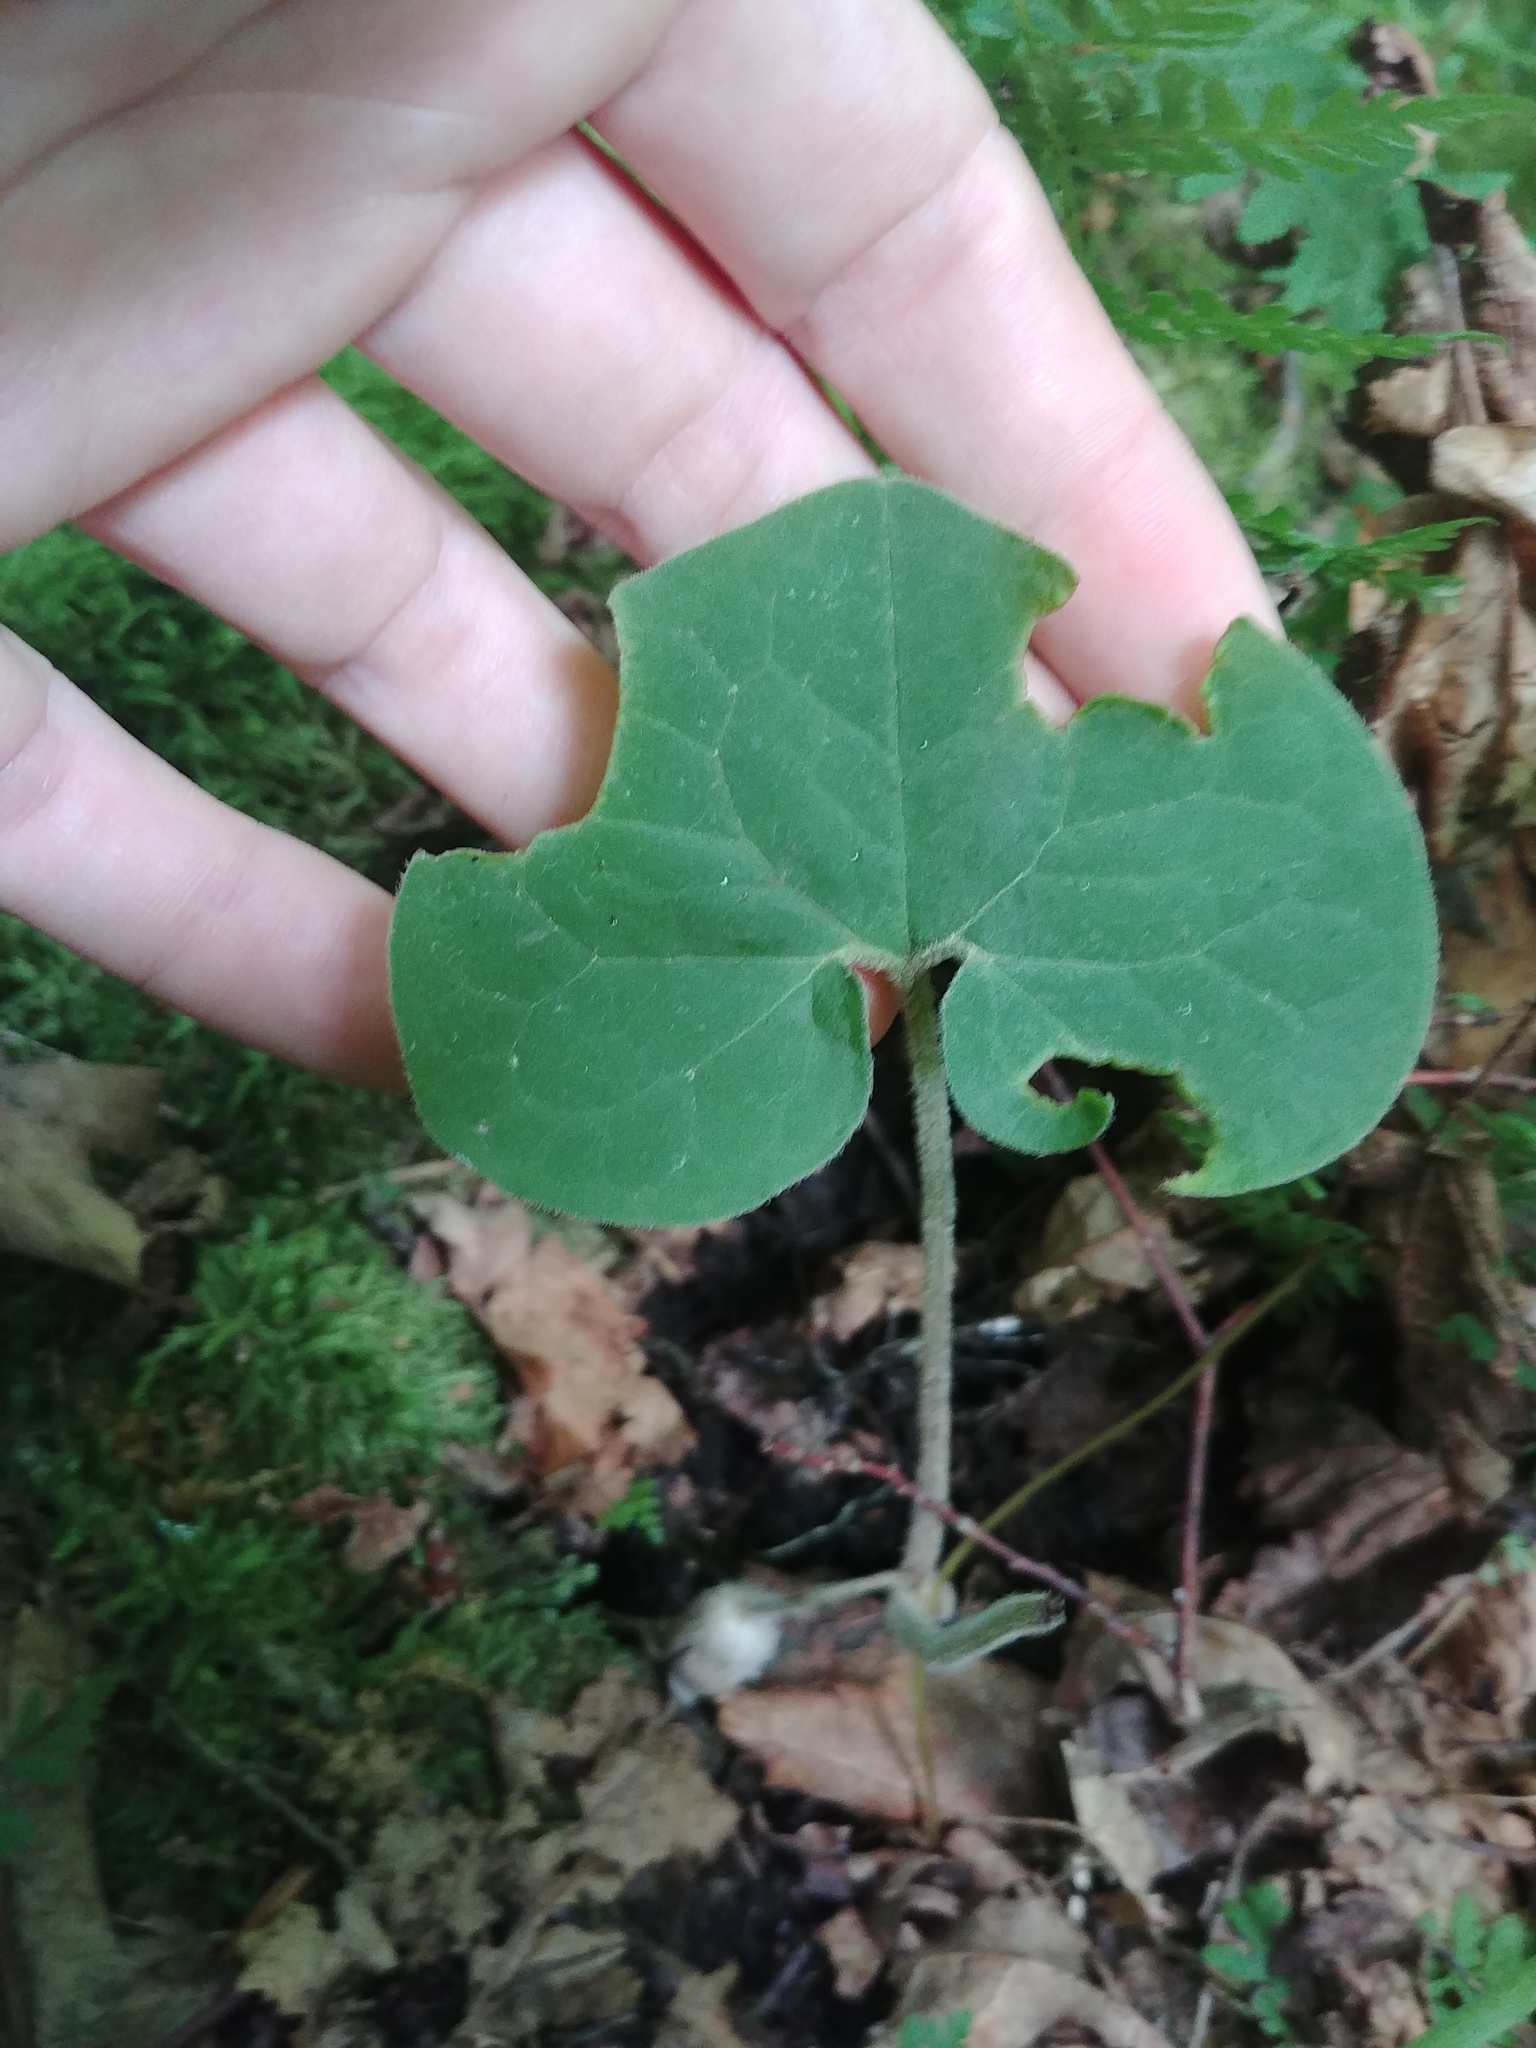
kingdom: Plantae
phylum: Tracheophyta
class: Magnoliopsida
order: Piperales
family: Aristolochiaceae
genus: Asarum
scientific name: Asarum canadense
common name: Wild ginger
